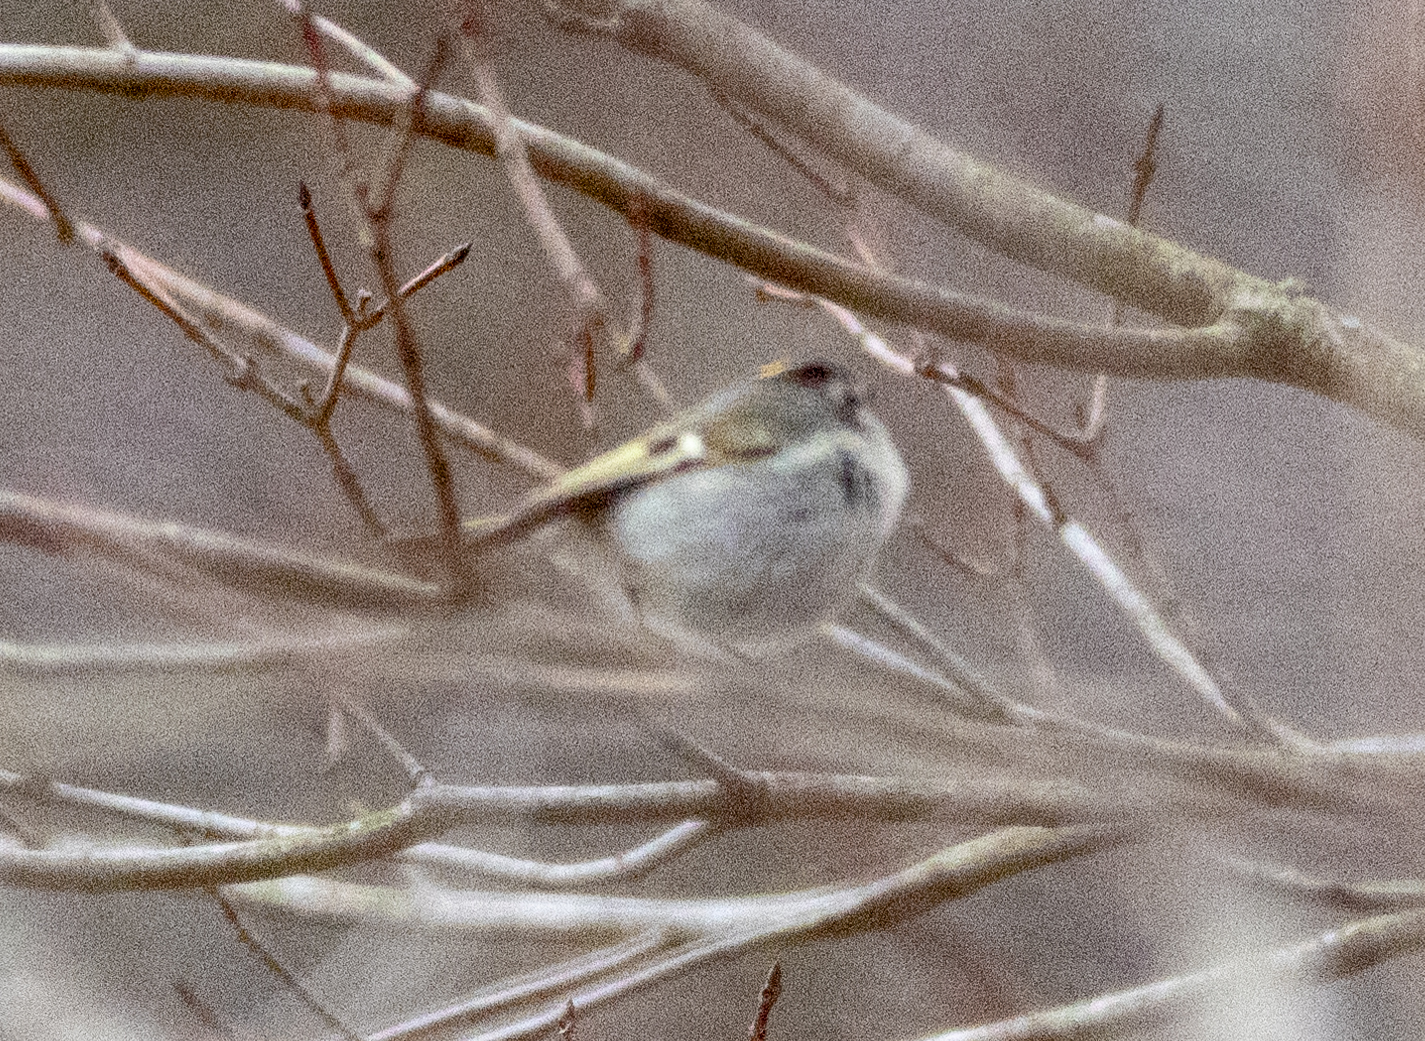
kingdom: Animalia
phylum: Chordata
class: Aves
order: Passeriformes
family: Regulidae
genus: Regulus
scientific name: Regulus satrapa
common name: Golden-crowned kinglet
